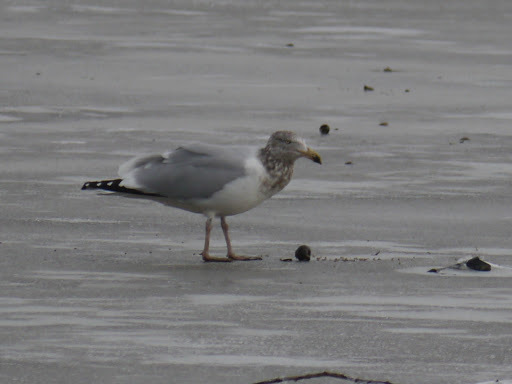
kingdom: Animalia
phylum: Chordata
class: Aves
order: Charadriiformes
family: Laridae
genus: Larus
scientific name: Larus argentatus
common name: Herring gull
